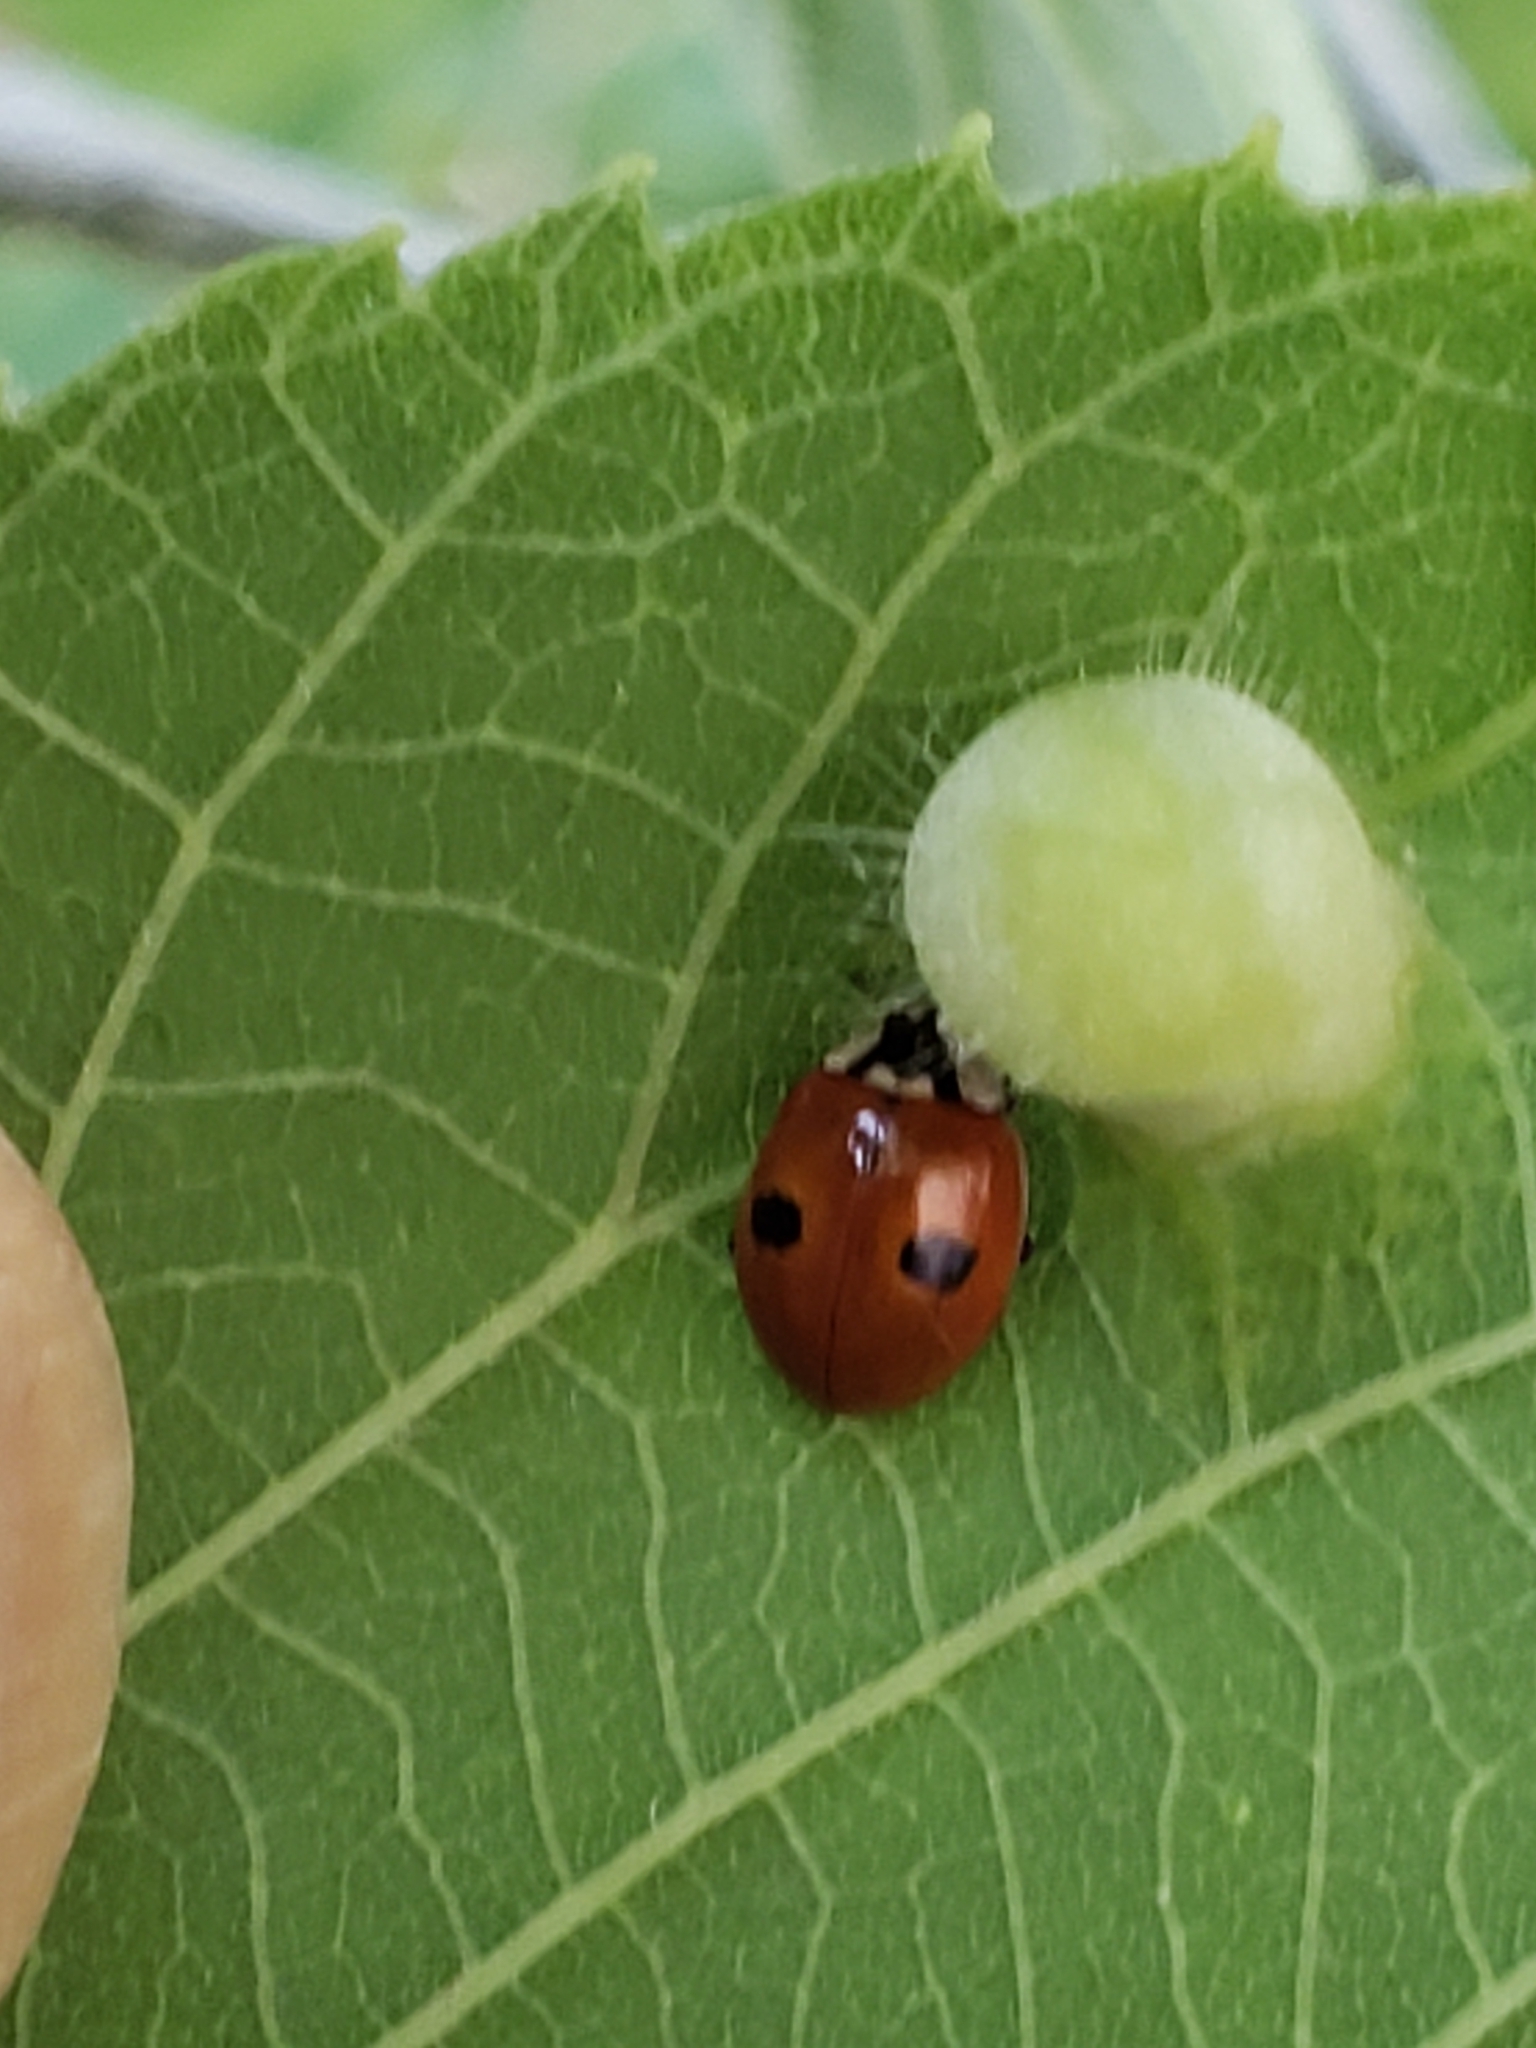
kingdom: Animalia
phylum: Arthropoda
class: Insecta
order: Coleoptera
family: Coccinellidae
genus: Adalia
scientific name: Adalia bipunctata
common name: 2-spot ladybird
